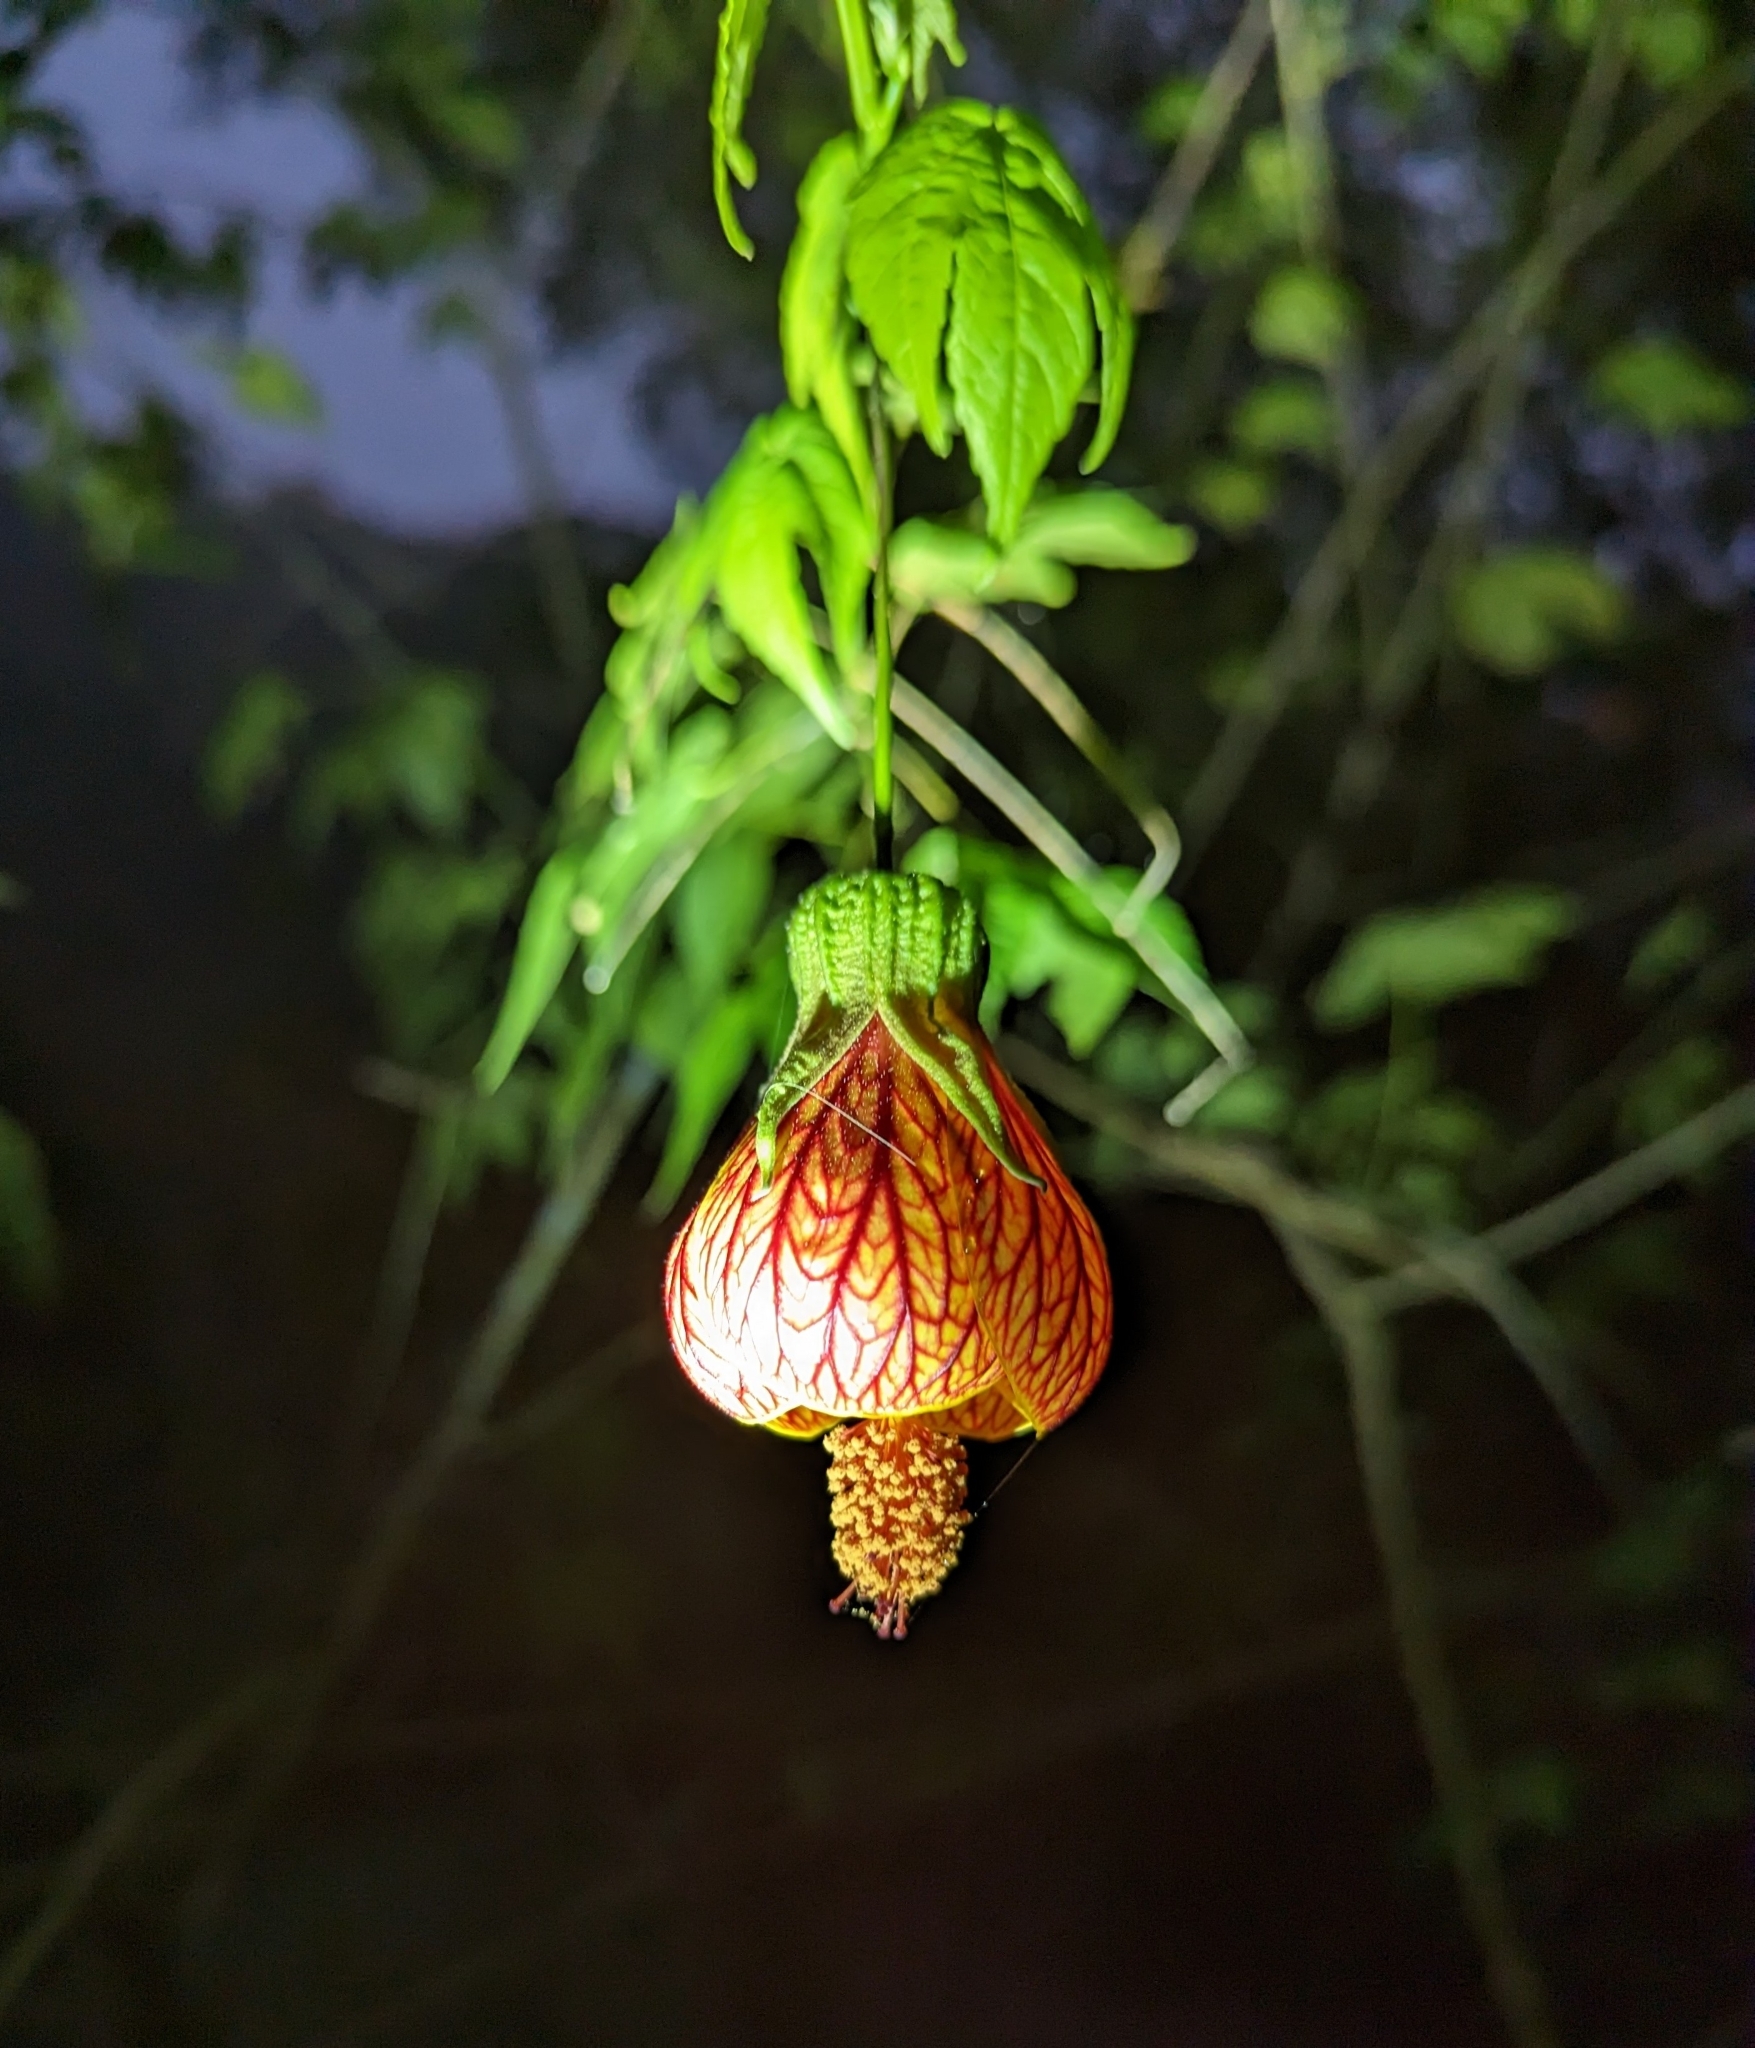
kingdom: Plantae
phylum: Tracheophyta
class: Magnoliopsida
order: Malvales
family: Malvaceae
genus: Callianthe
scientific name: Callianthe picta
